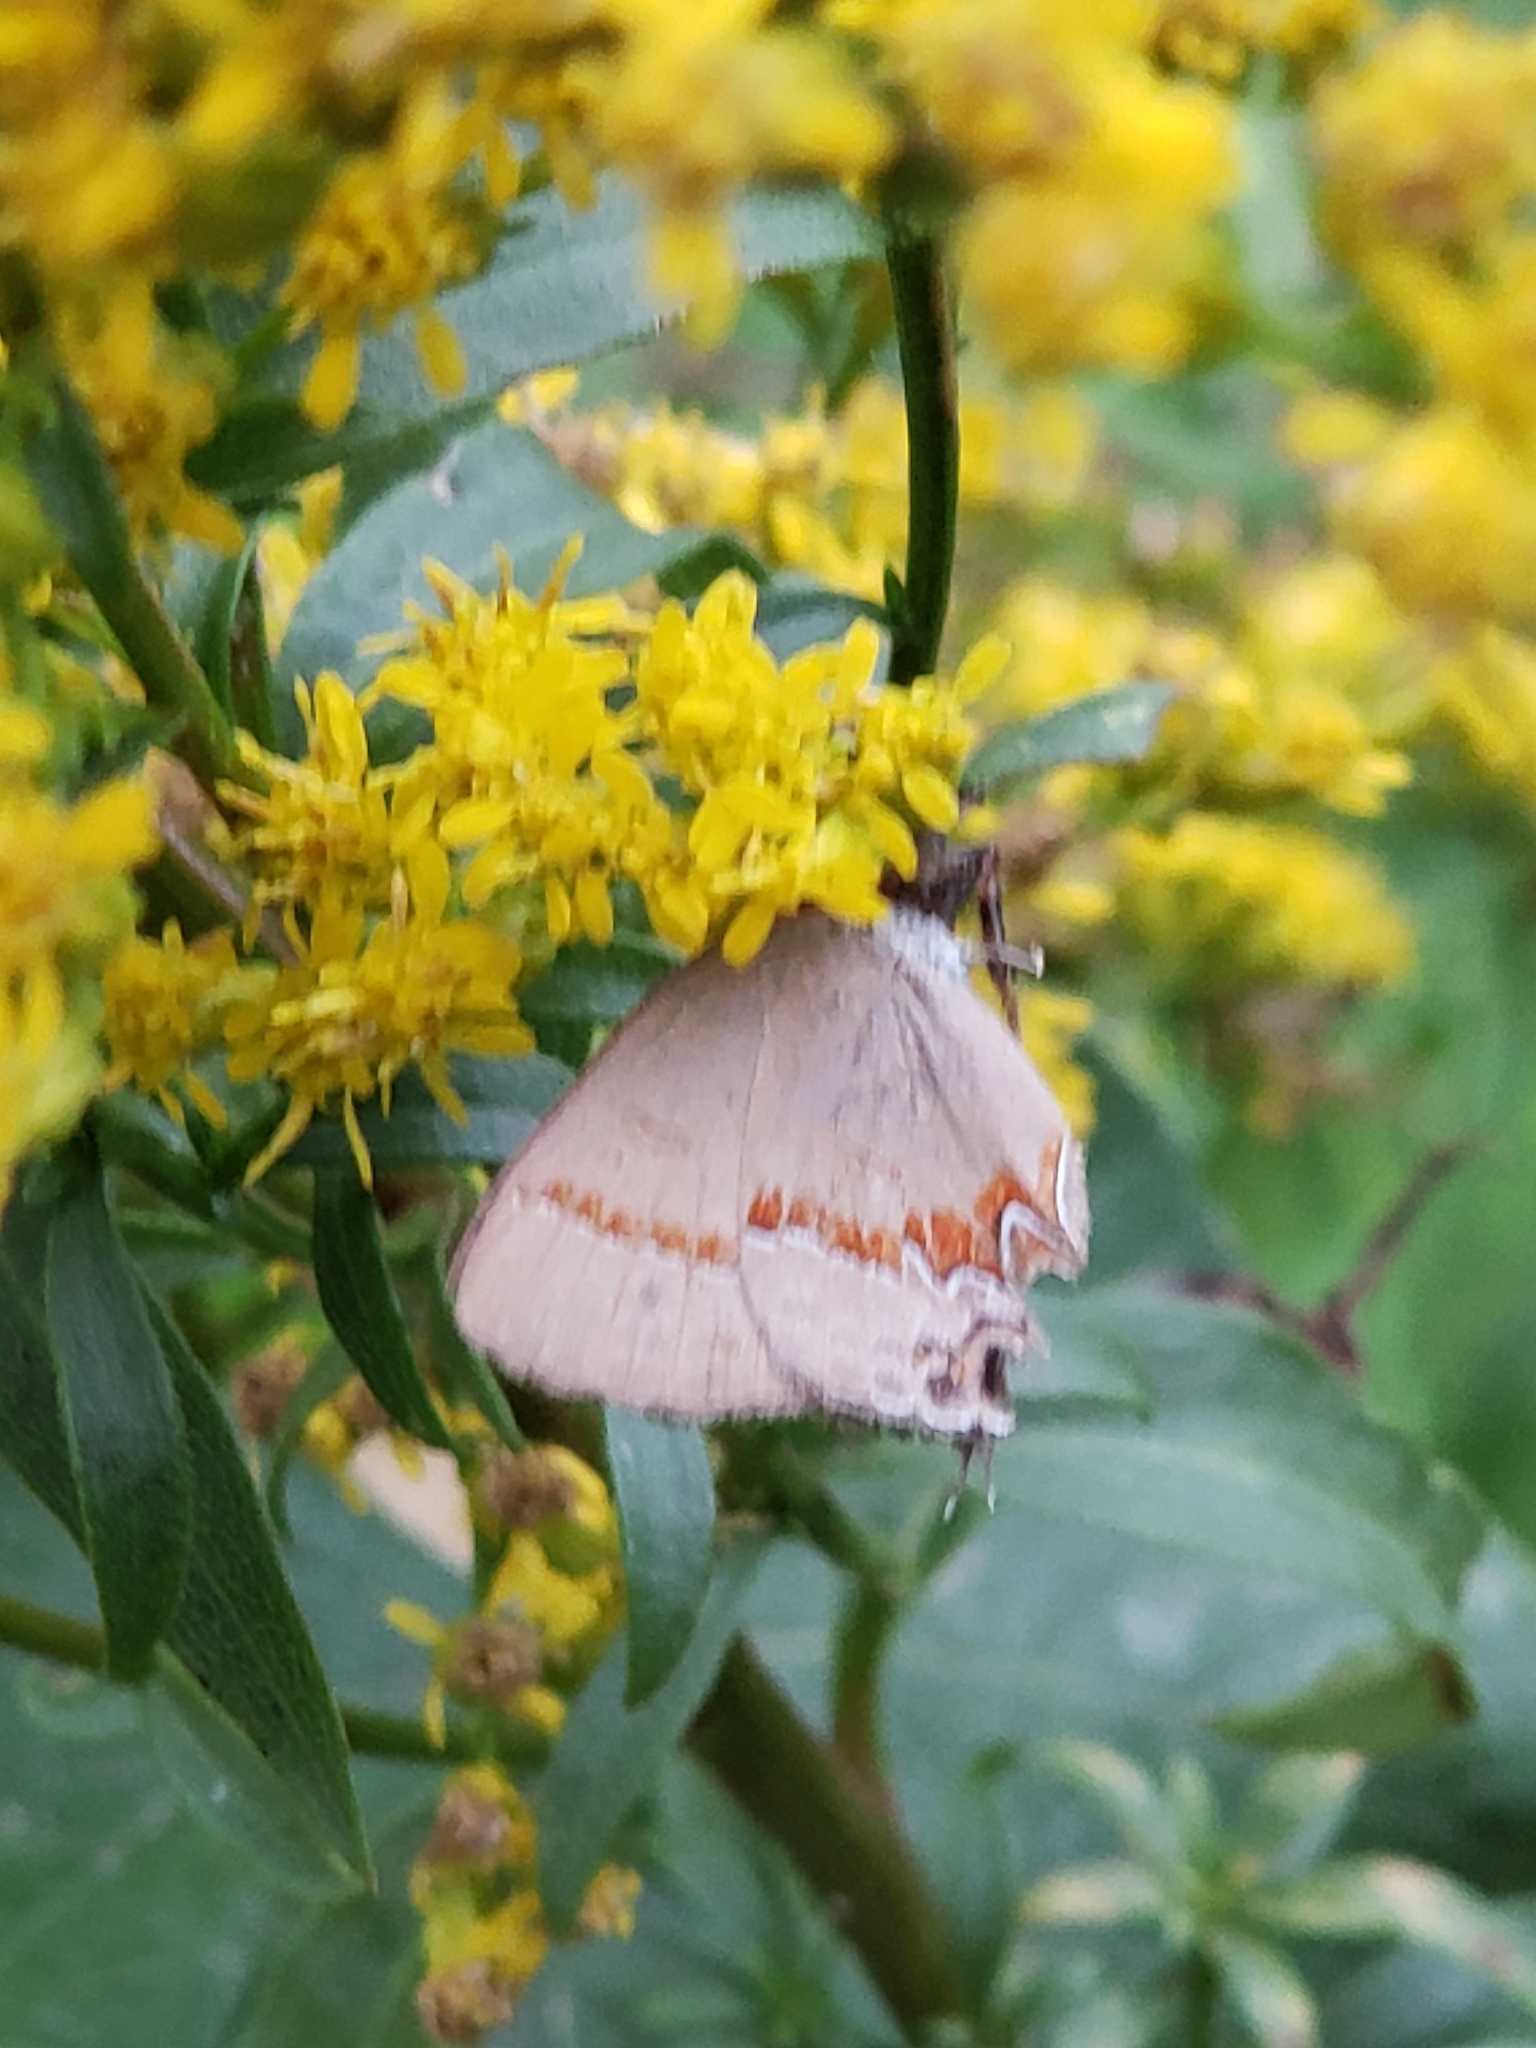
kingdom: Animalia
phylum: Arthropoda
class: Insecta
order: Lepidoptera
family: Lycaenidae
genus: Calycopis
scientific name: Calycopis cecrops
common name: Red-banded hairstreak
